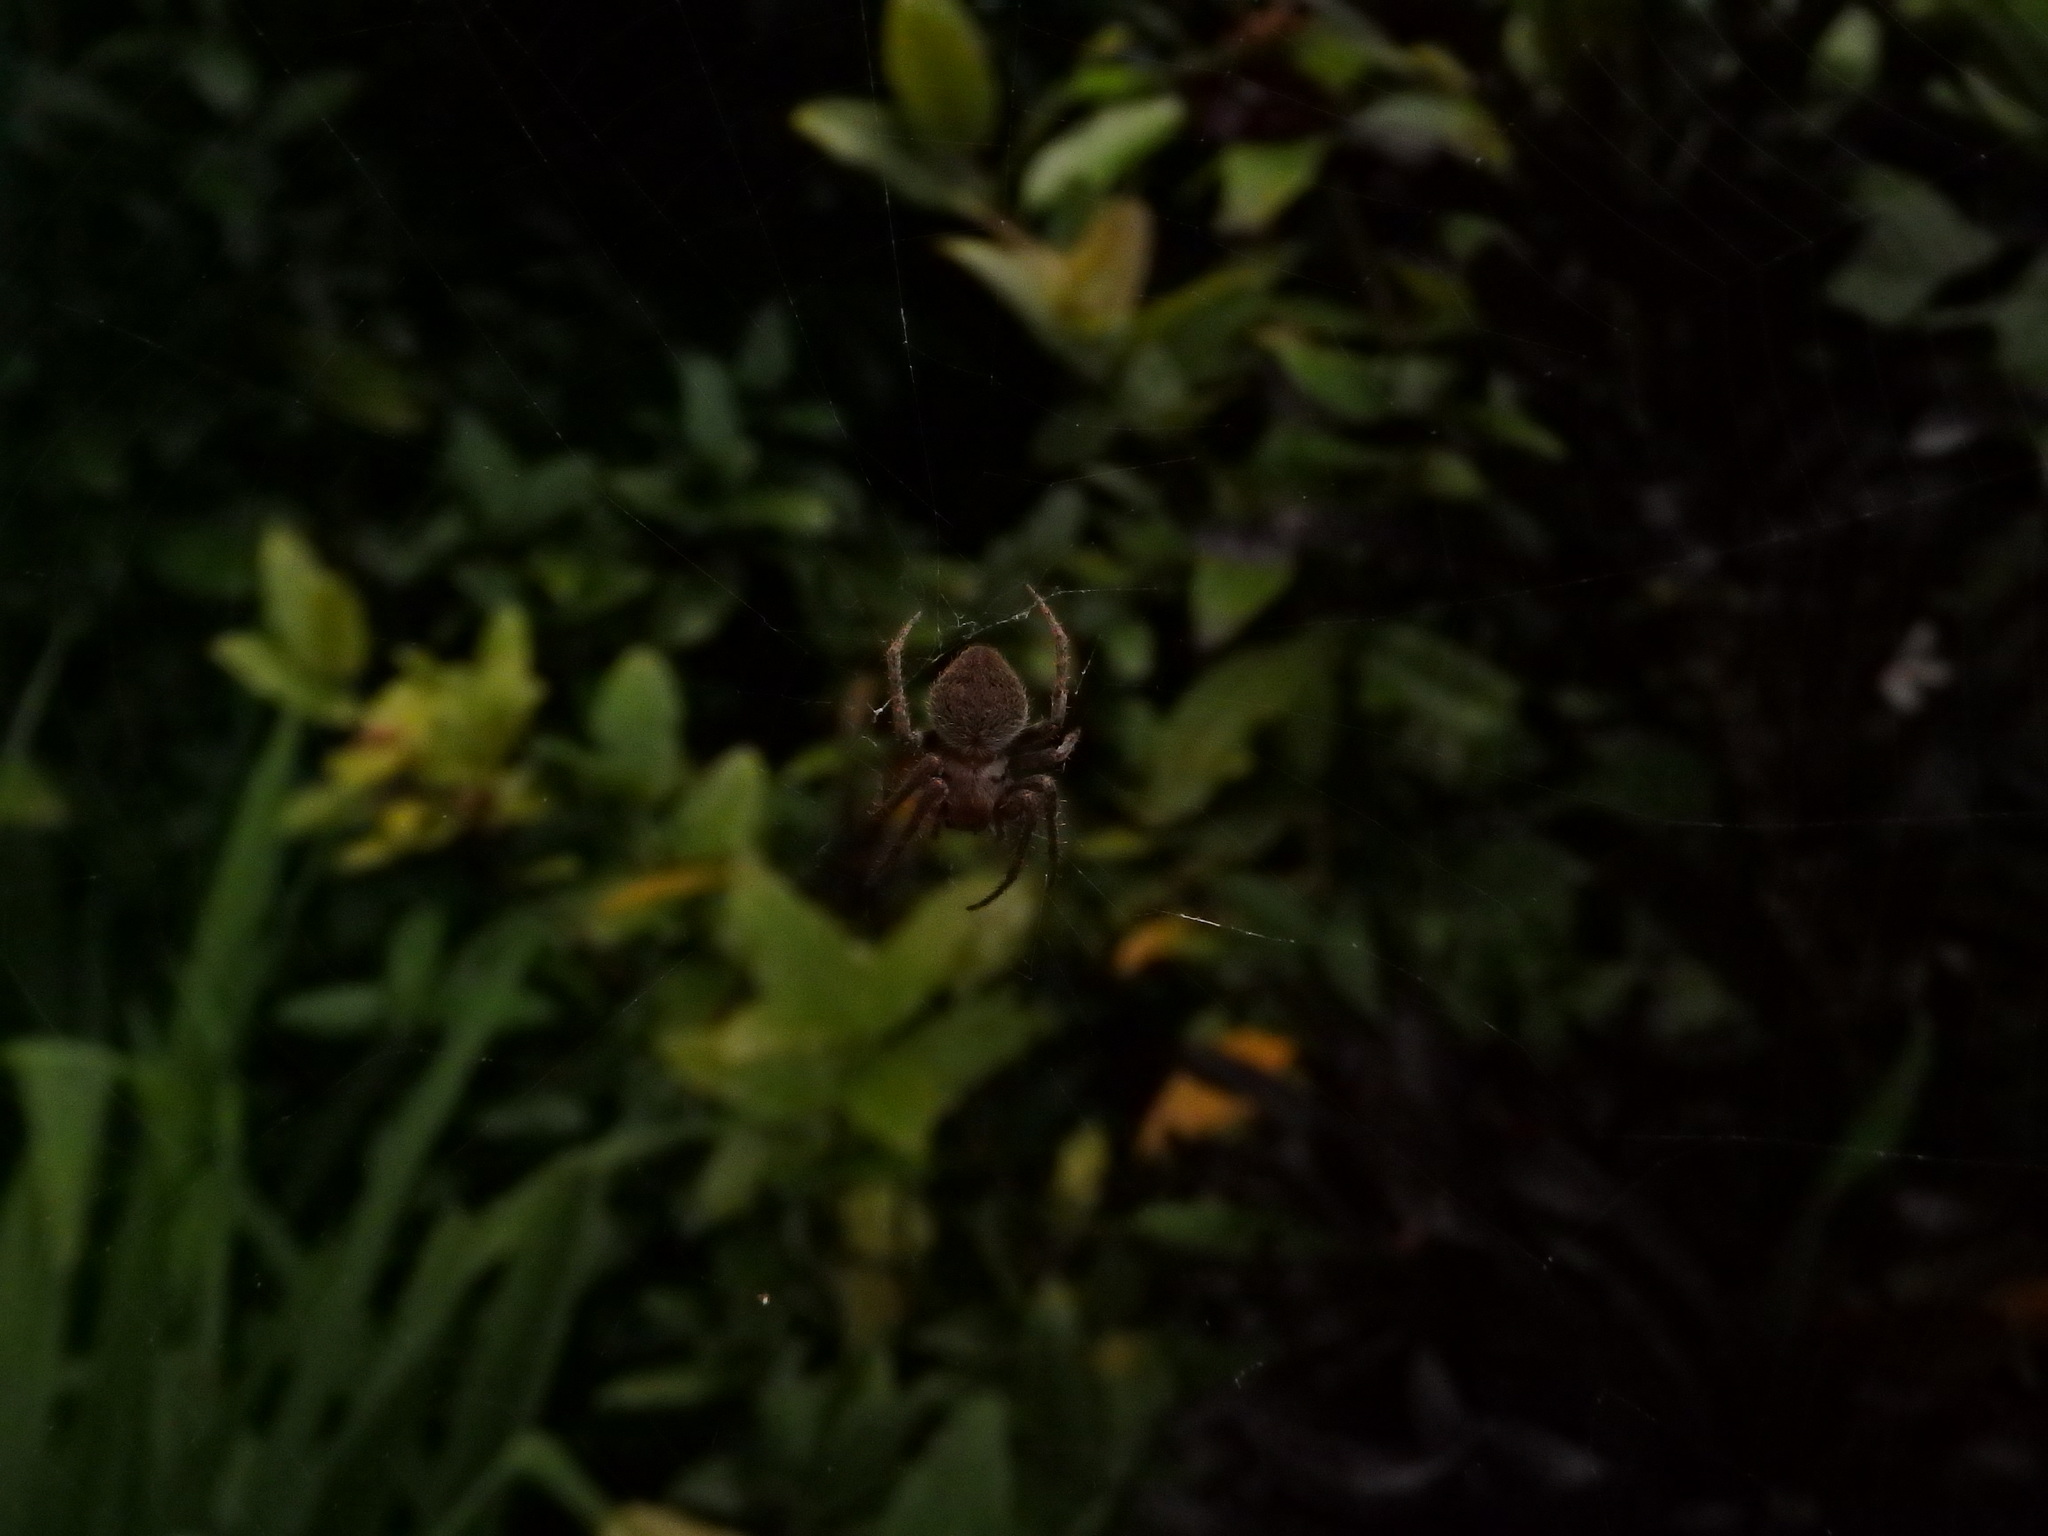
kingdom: Animalia
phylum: Arthropoda
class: Arachnida
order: Araneae
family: Araneidae
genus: Neoscona
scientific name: Neoscona punctigera
